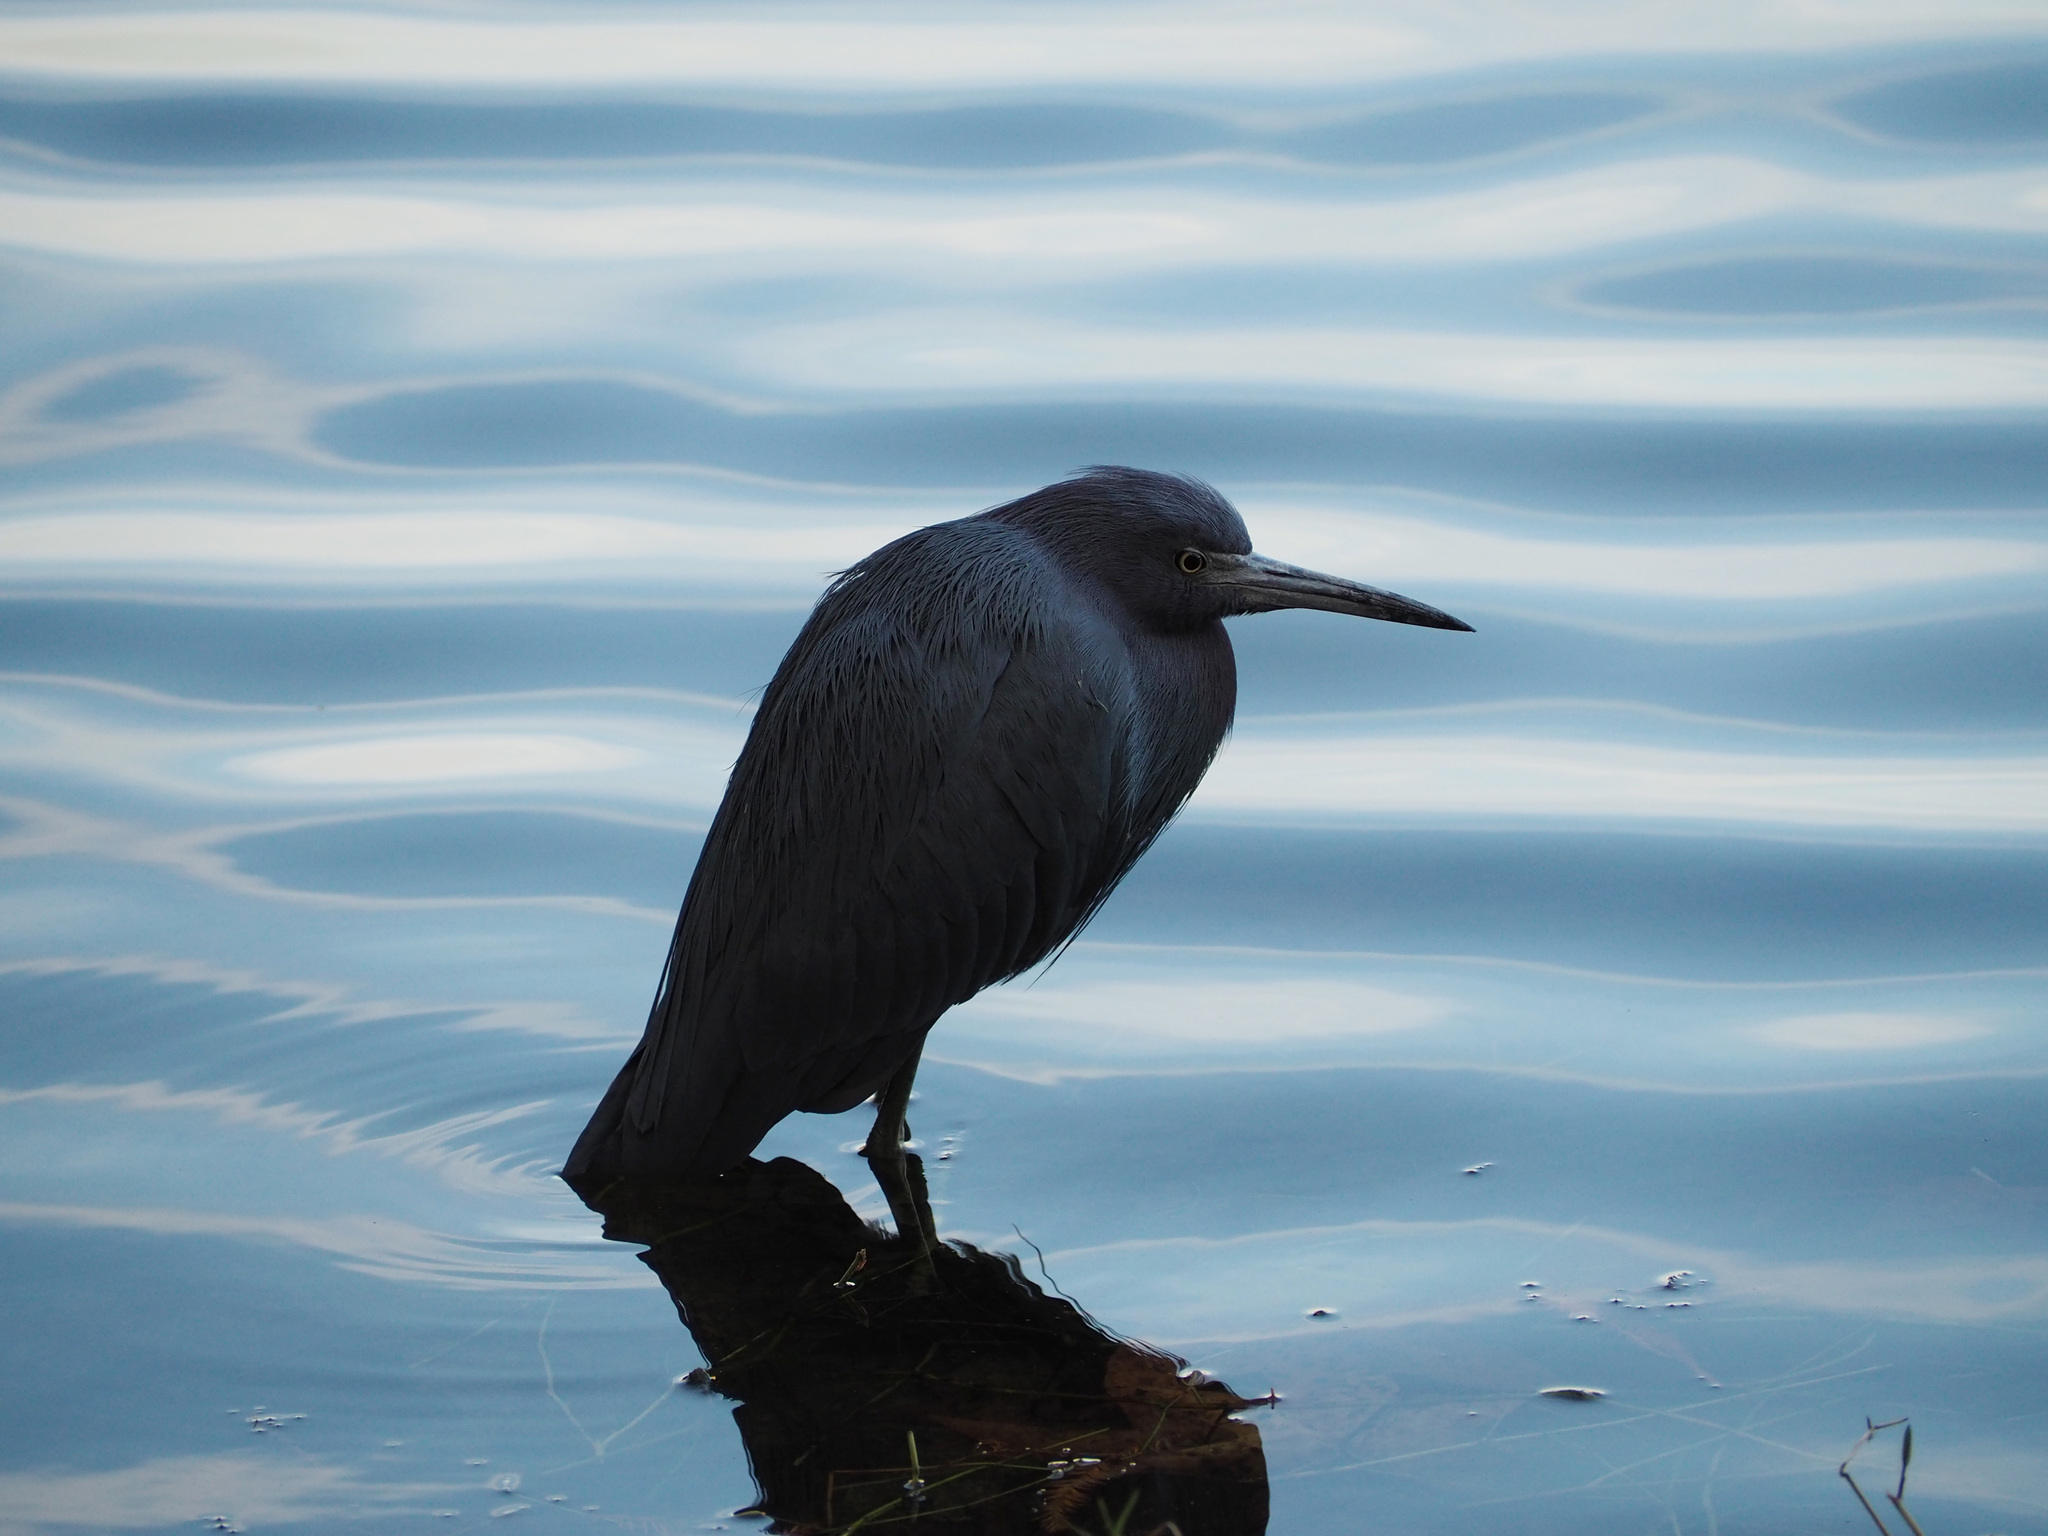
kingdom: Animalia
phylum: Chordata
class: Aves
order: Pelecaniformes
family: Ardeidae
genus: Egretta
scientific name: Egretta caerulea
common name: Little blue heron
